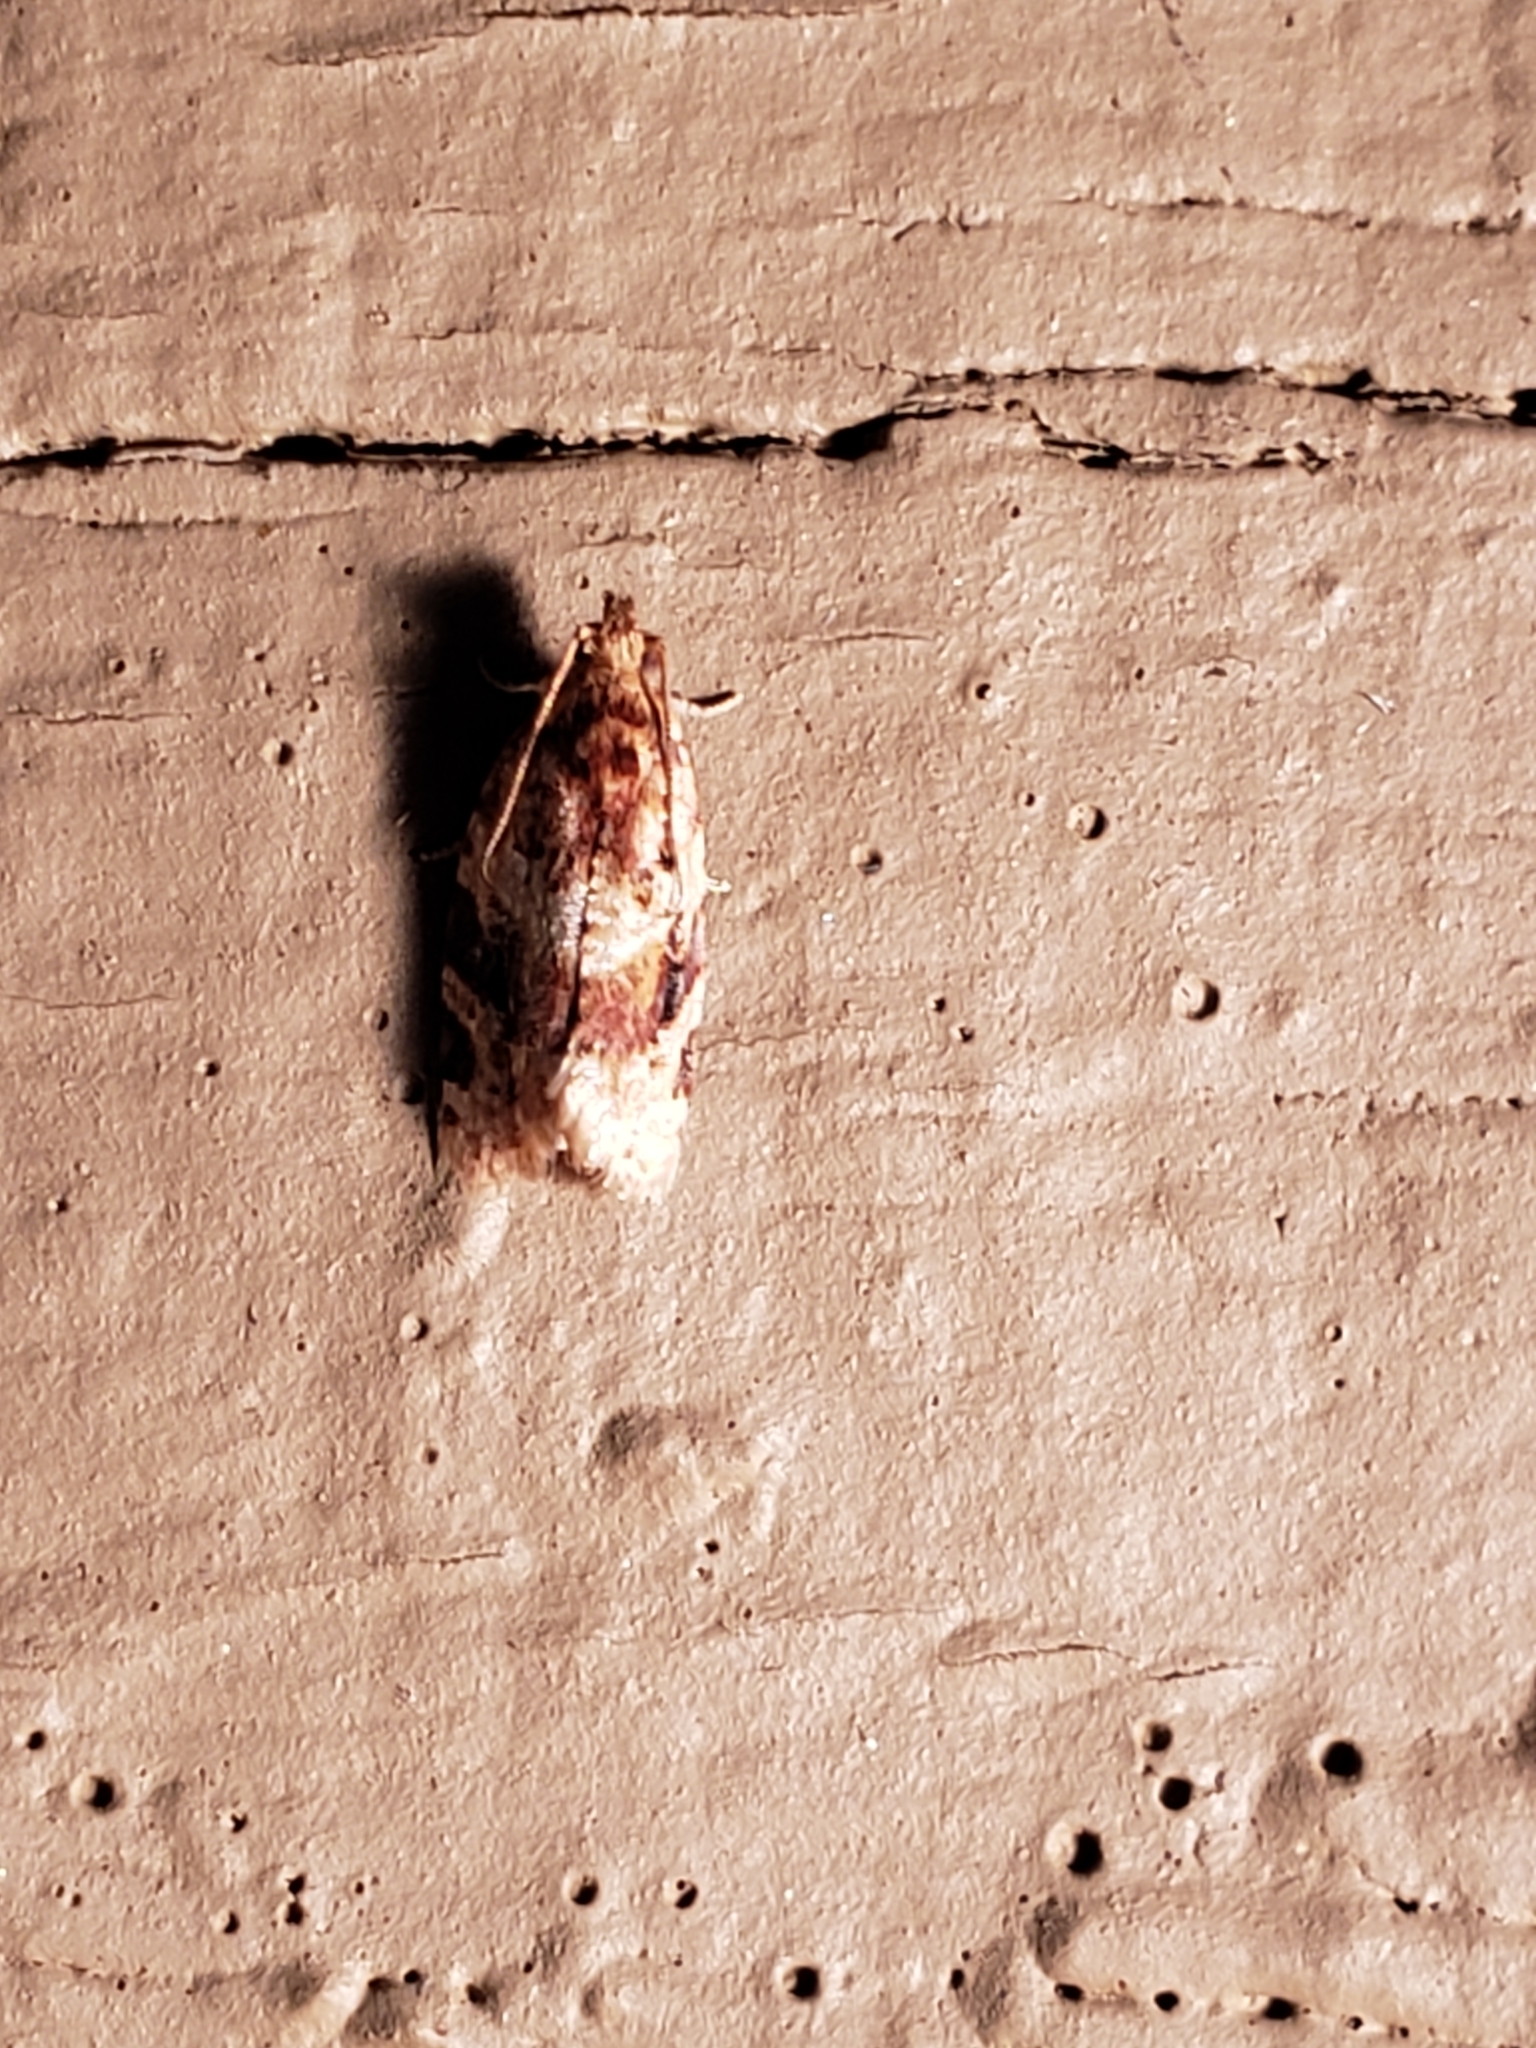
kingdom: Animalia
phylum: Arthropoda
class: Insecta
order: Lepidoptera
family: Tortricidae
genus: Argyrotaenia
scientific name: Argyrotaenia velutinana
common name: Red-banded leafroller moth
